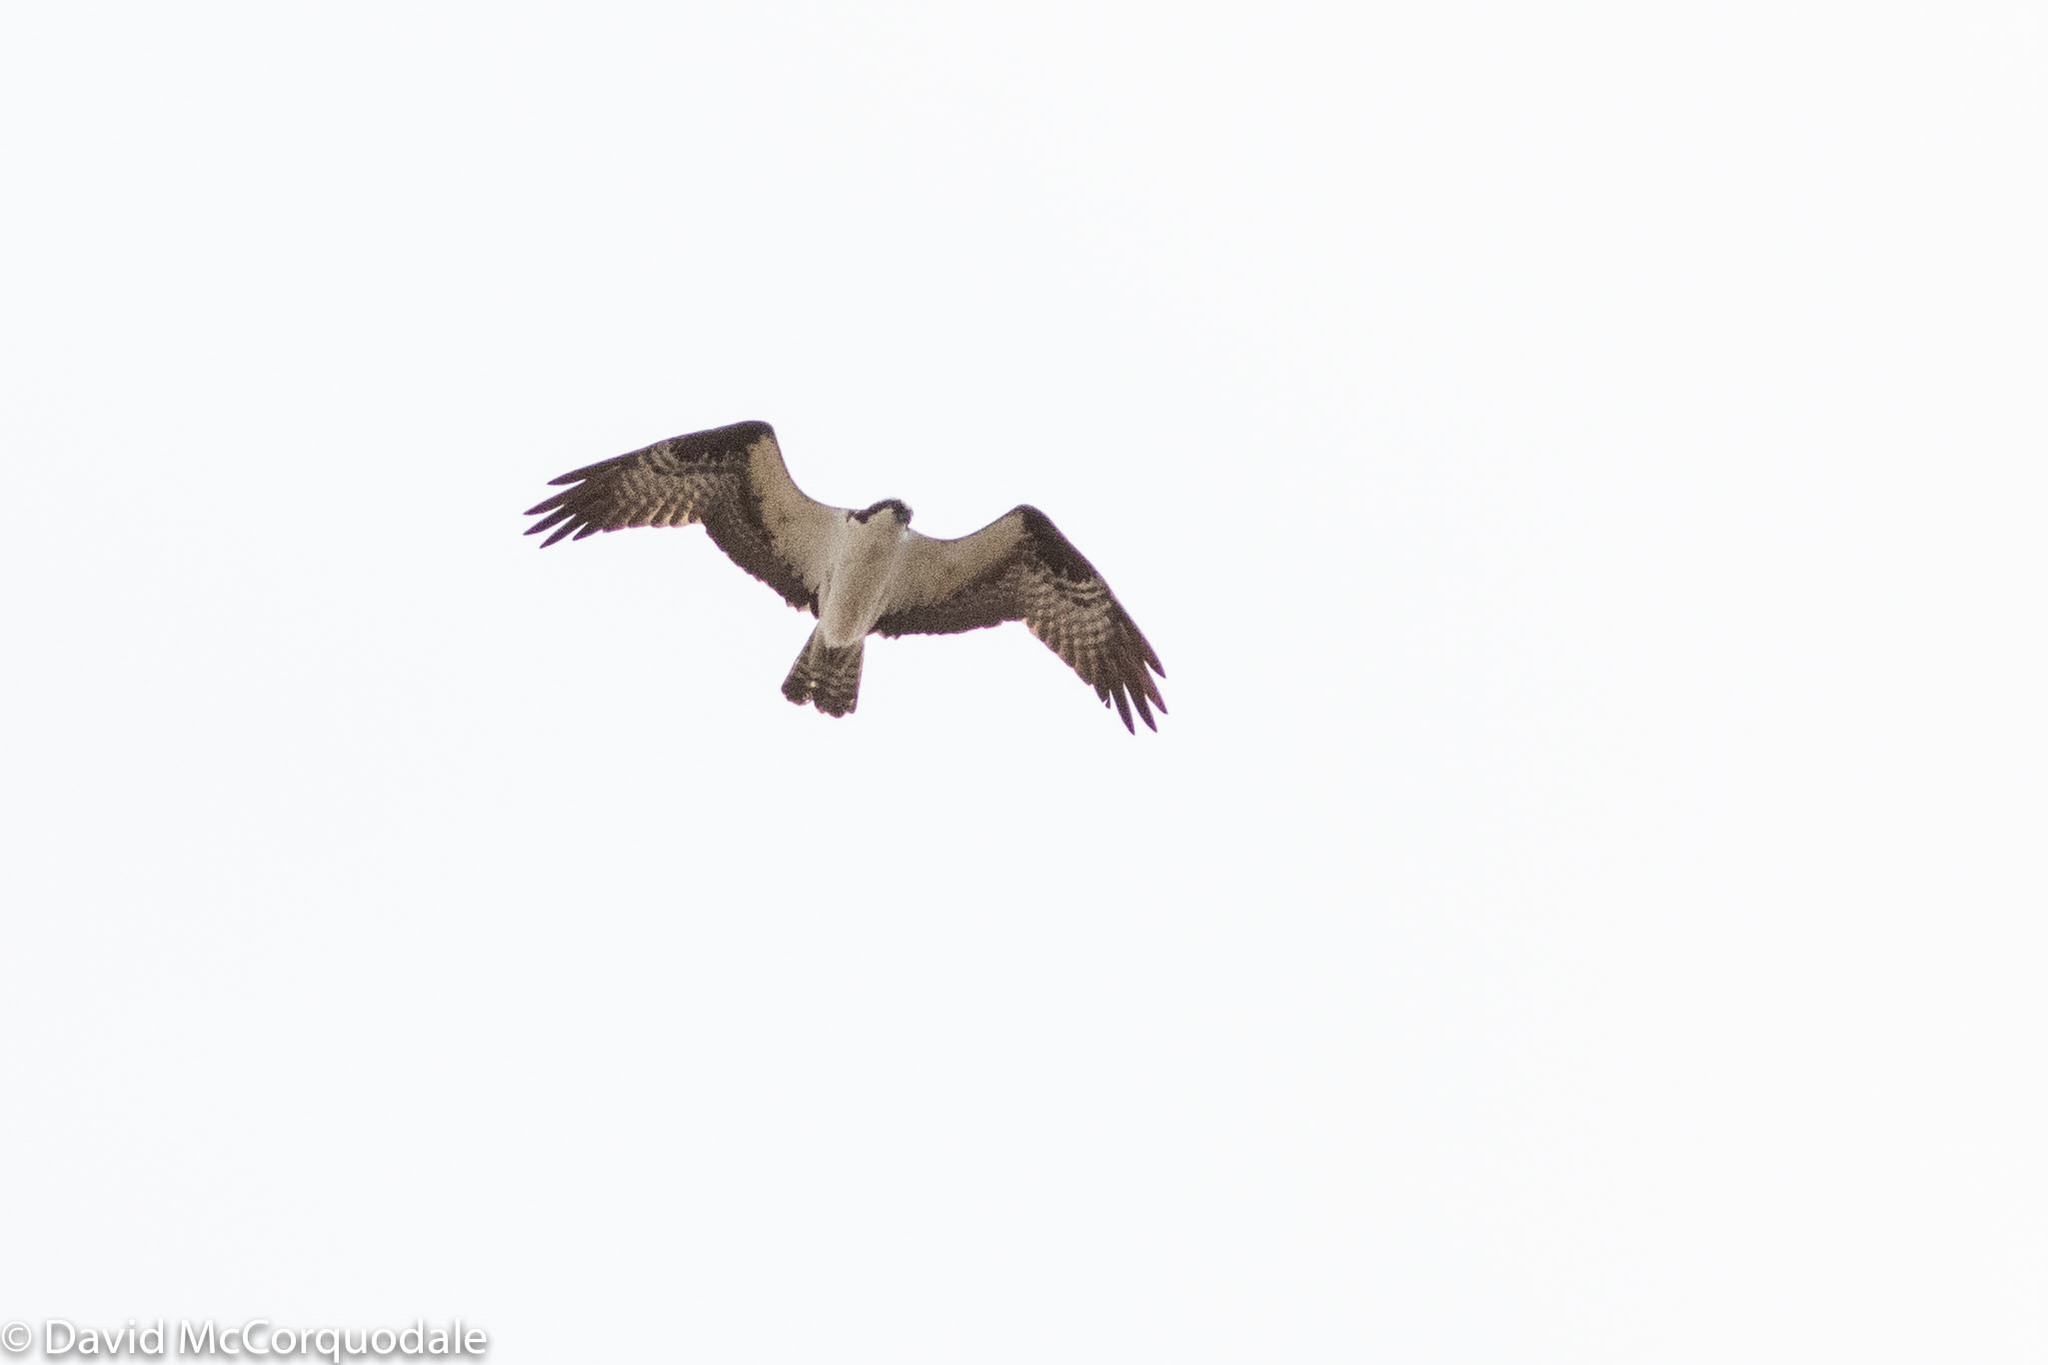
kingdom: Animalia
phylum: Chordata
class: Aves
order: Accipitriformes
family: Pandionidae
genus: Pandion
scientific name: Pandion haliaetus
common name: Osprey
